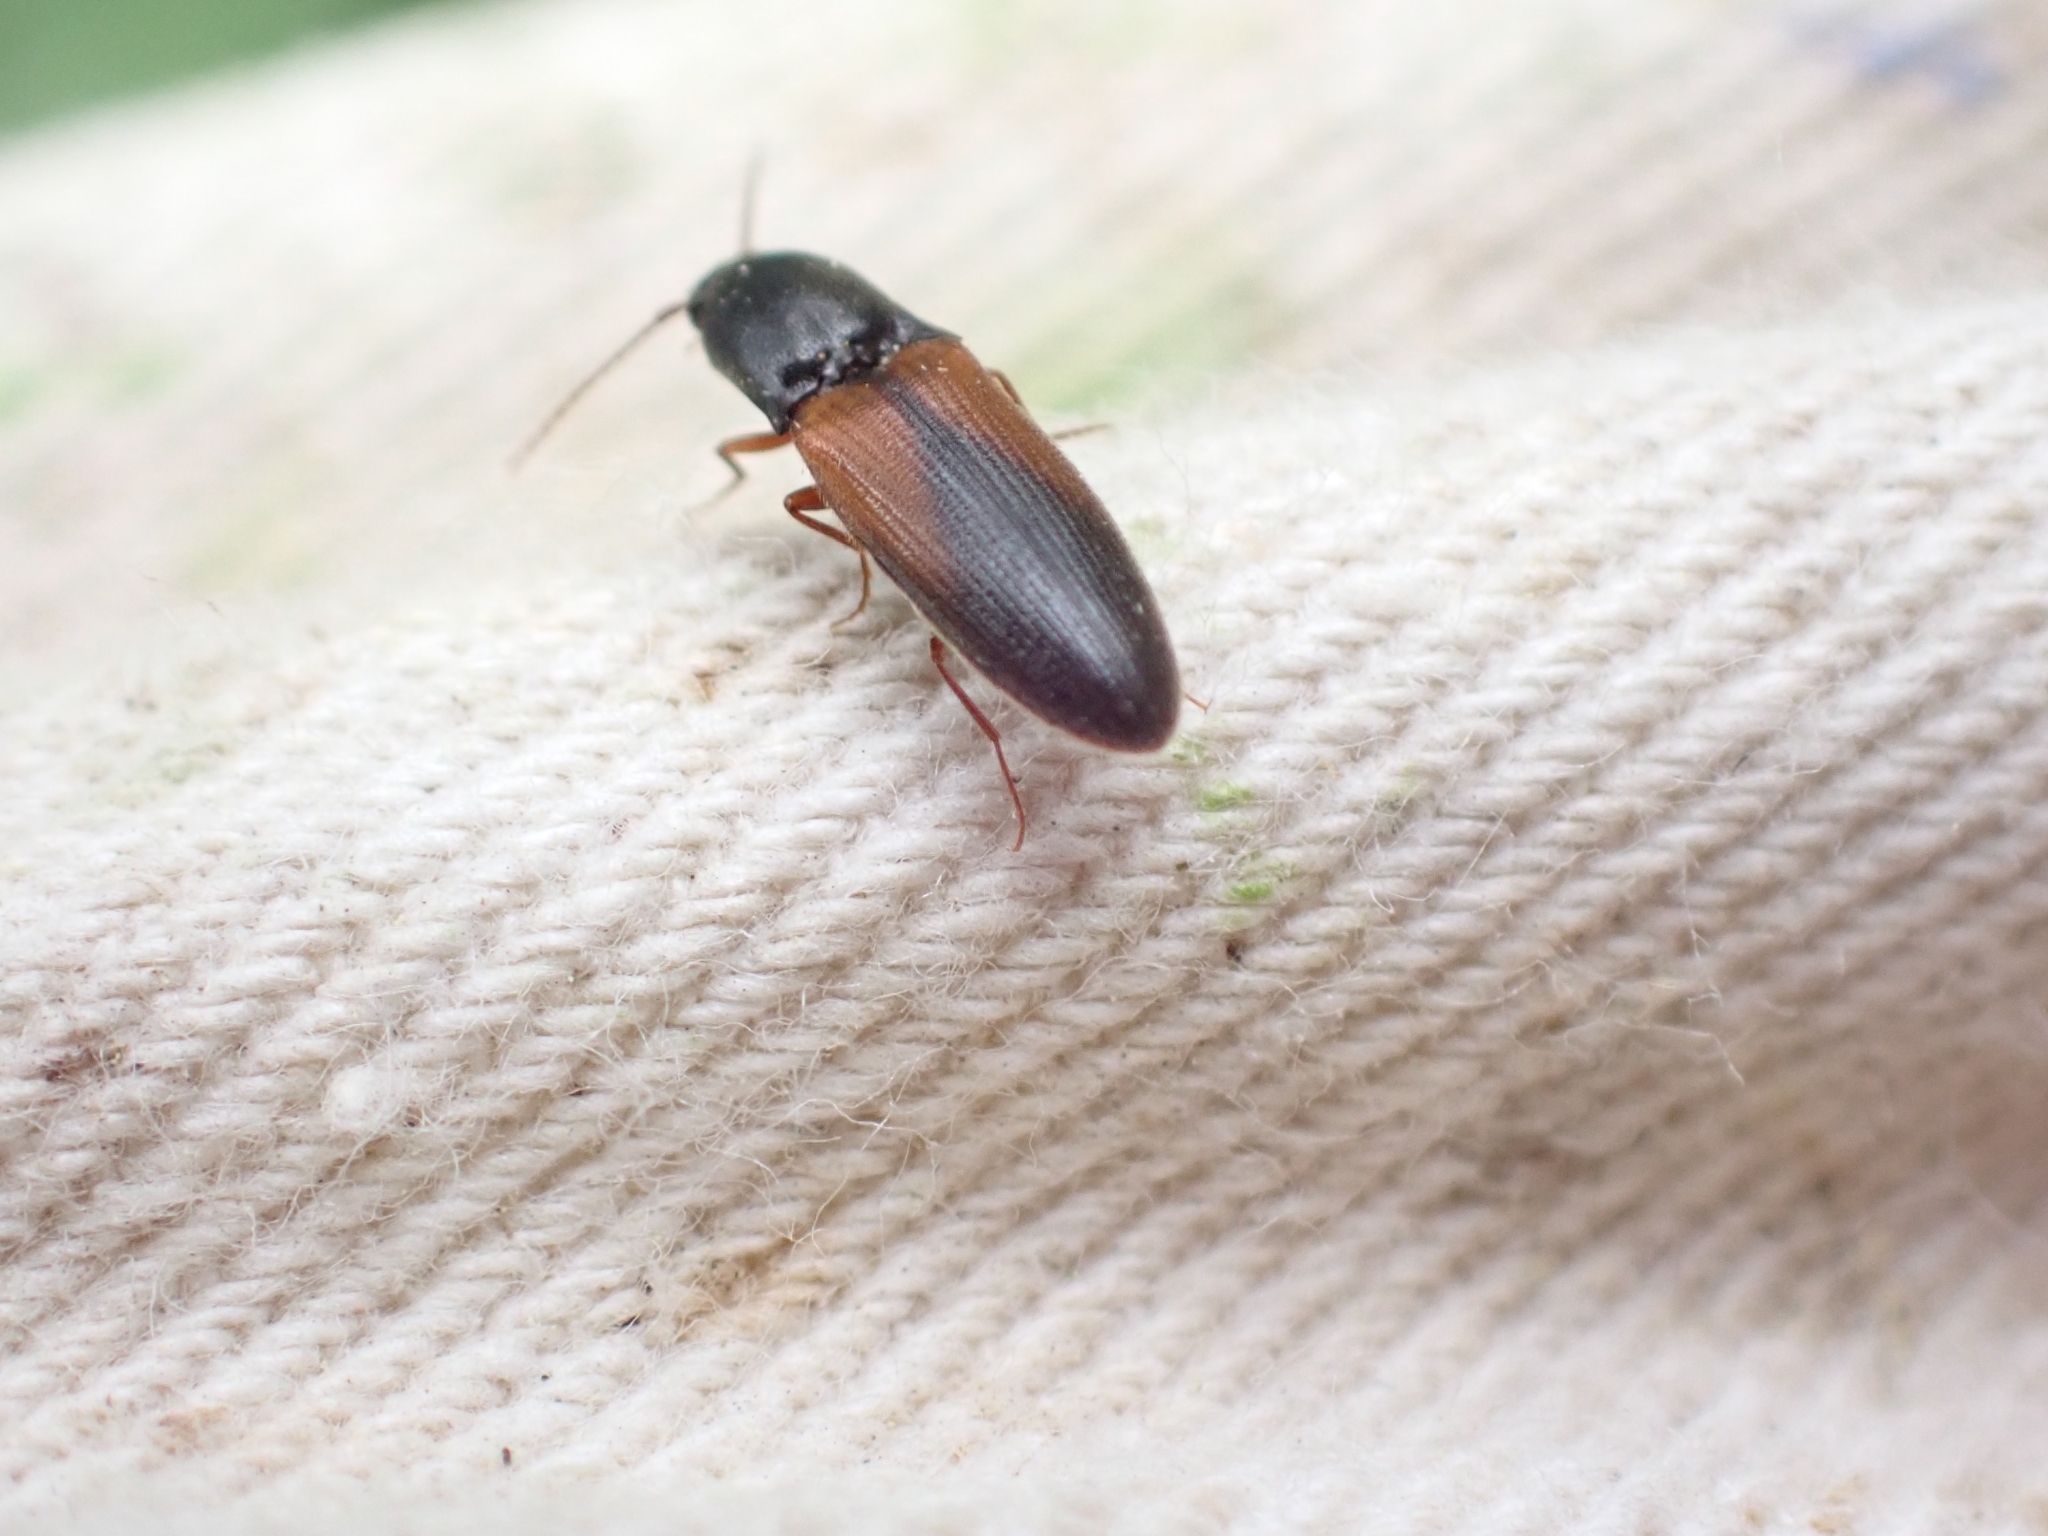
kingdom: Animalia
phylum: Arthropoda
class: Insecta
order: Coleoptera
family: Elateridae
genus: Agriotes
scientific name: Agriotes thevenetii
